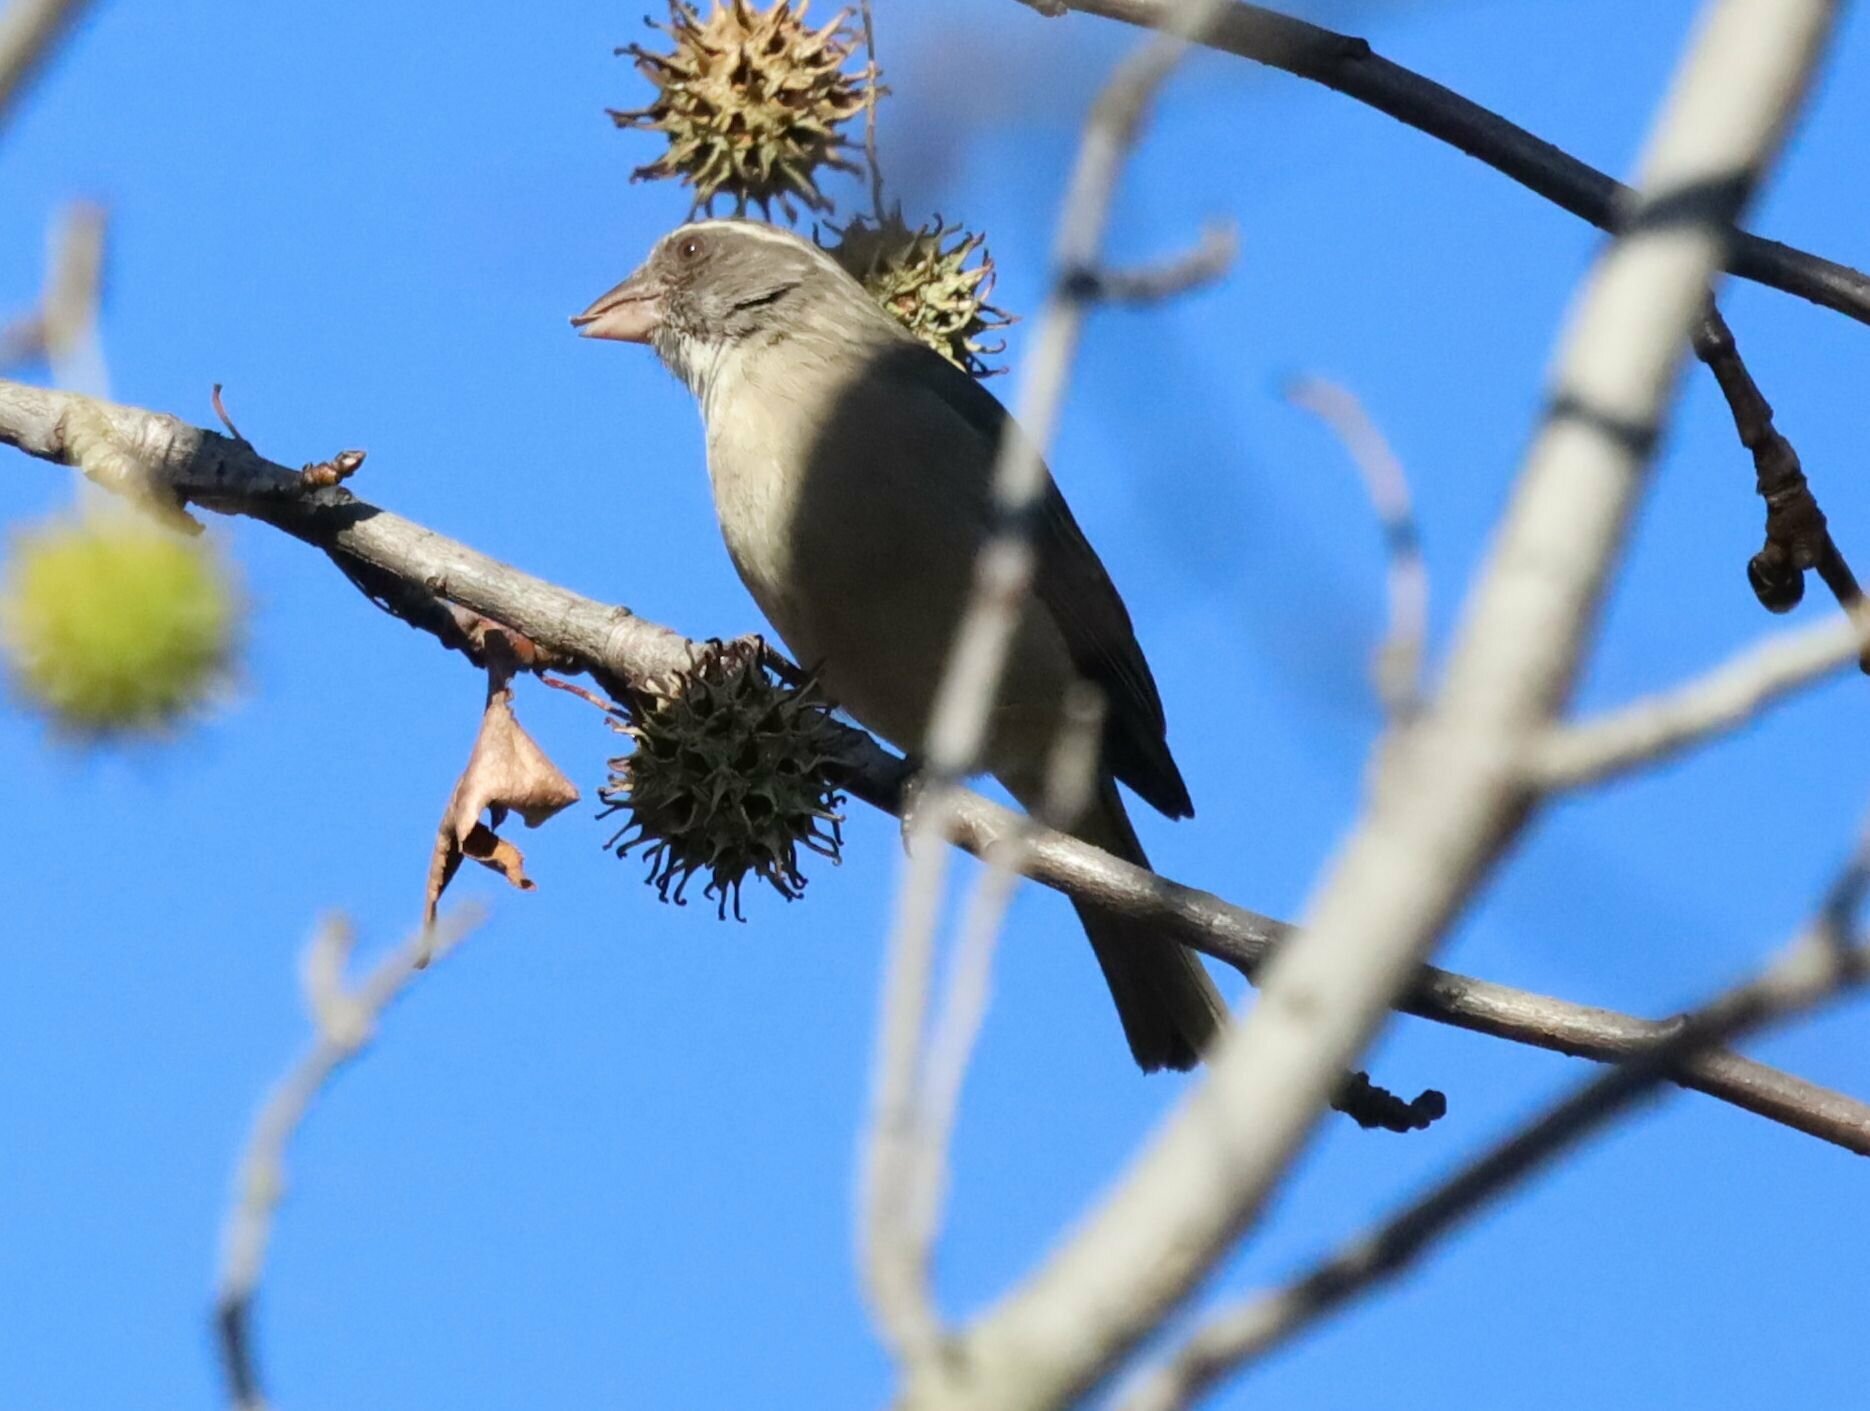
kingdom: Animalia
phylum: Chordata
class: Aves
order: Passeriformes
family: Fringillidae
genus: Crithagra
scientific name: Crithagra gularis
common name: Streaky-headed seedeater
